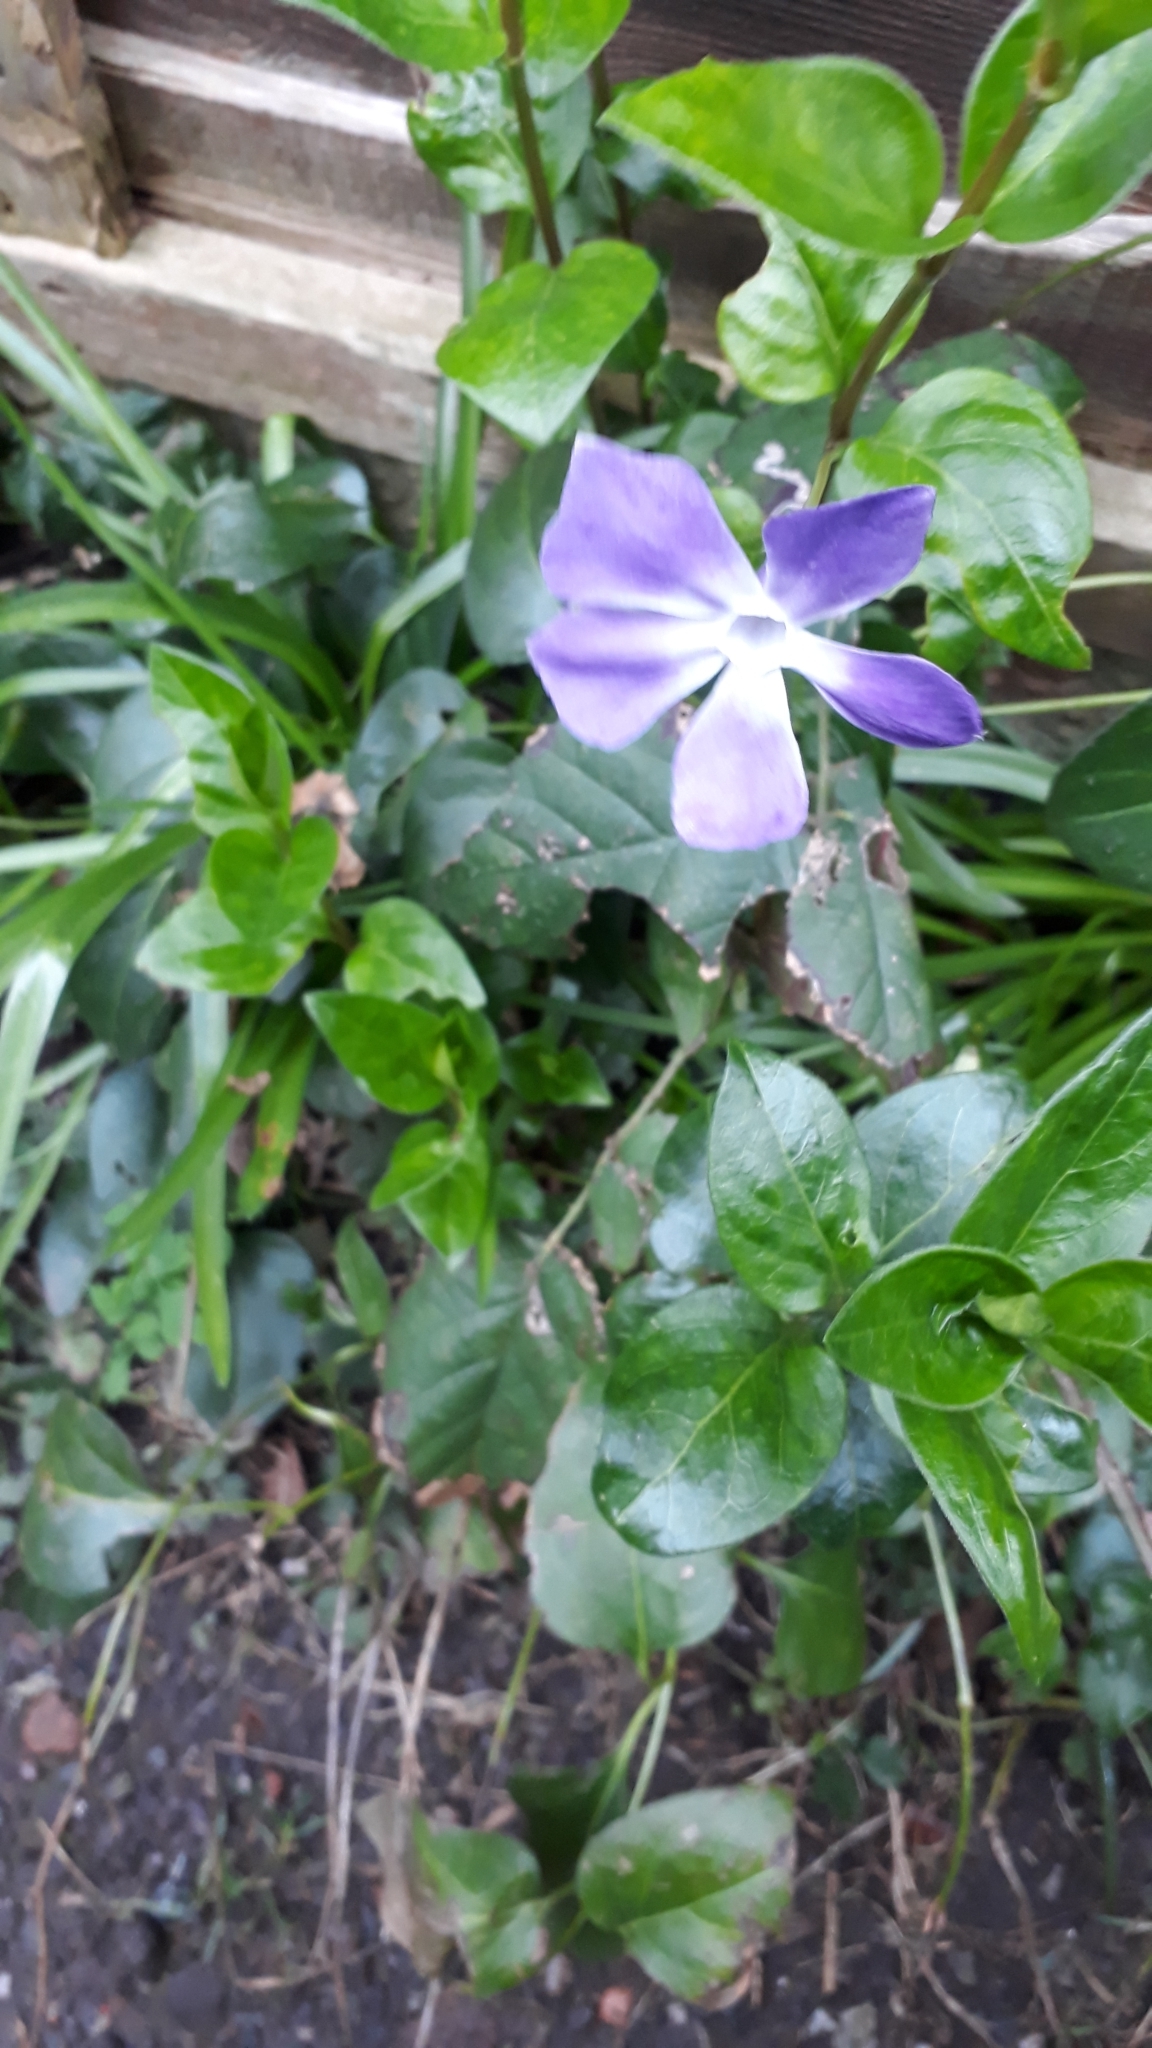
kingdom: Plantae
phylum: Tracheophyta
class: Magnoliopsida
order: Gentianales
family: Apocynaceae
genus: Vinca
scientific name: Vinca major
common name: Greater periwinkle
